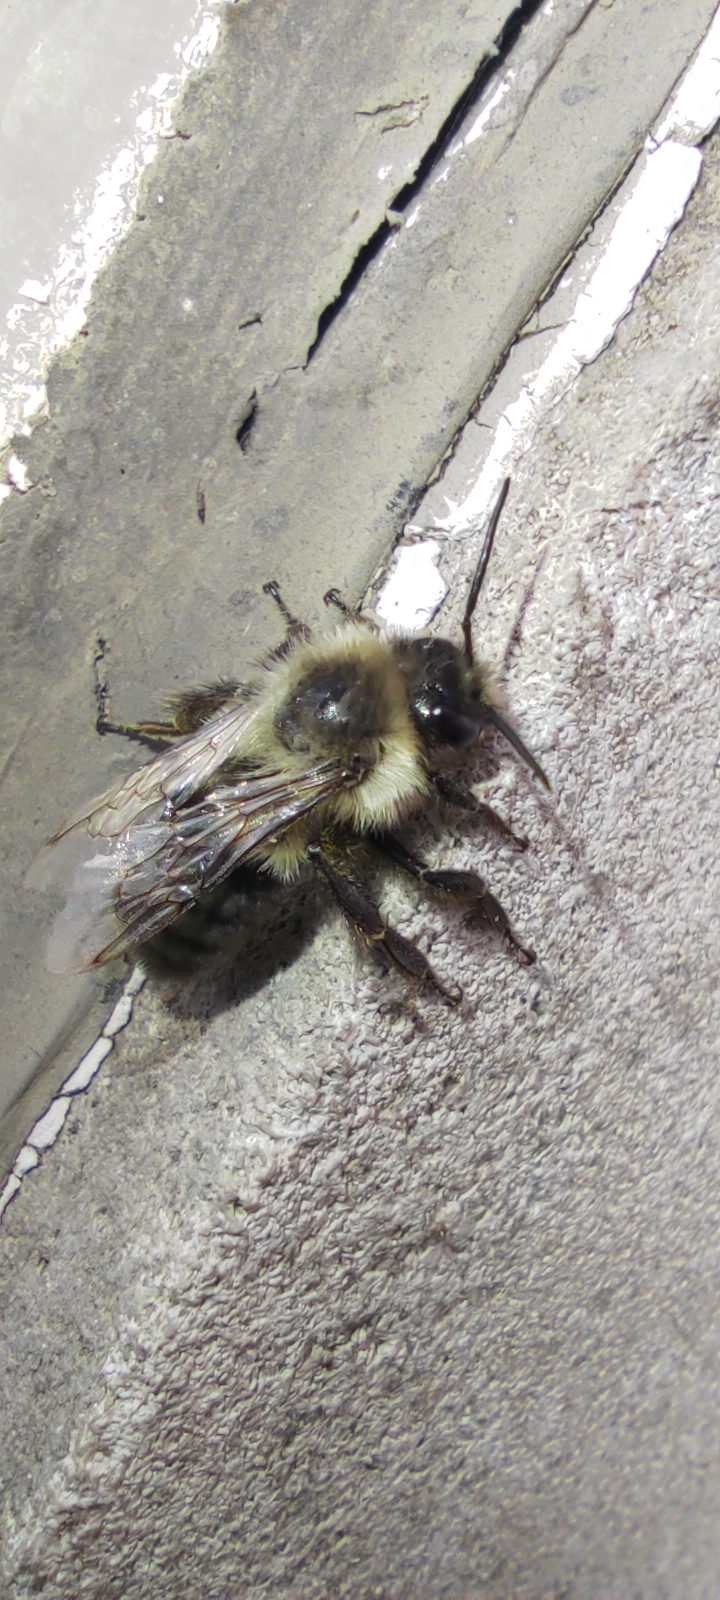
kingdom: Animalia
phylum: Arthropoda
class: Insecta
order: Hymenoptera
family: Apidae
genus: Bombus
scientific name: Bombus impatiens
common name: Common eastern bumble bee
